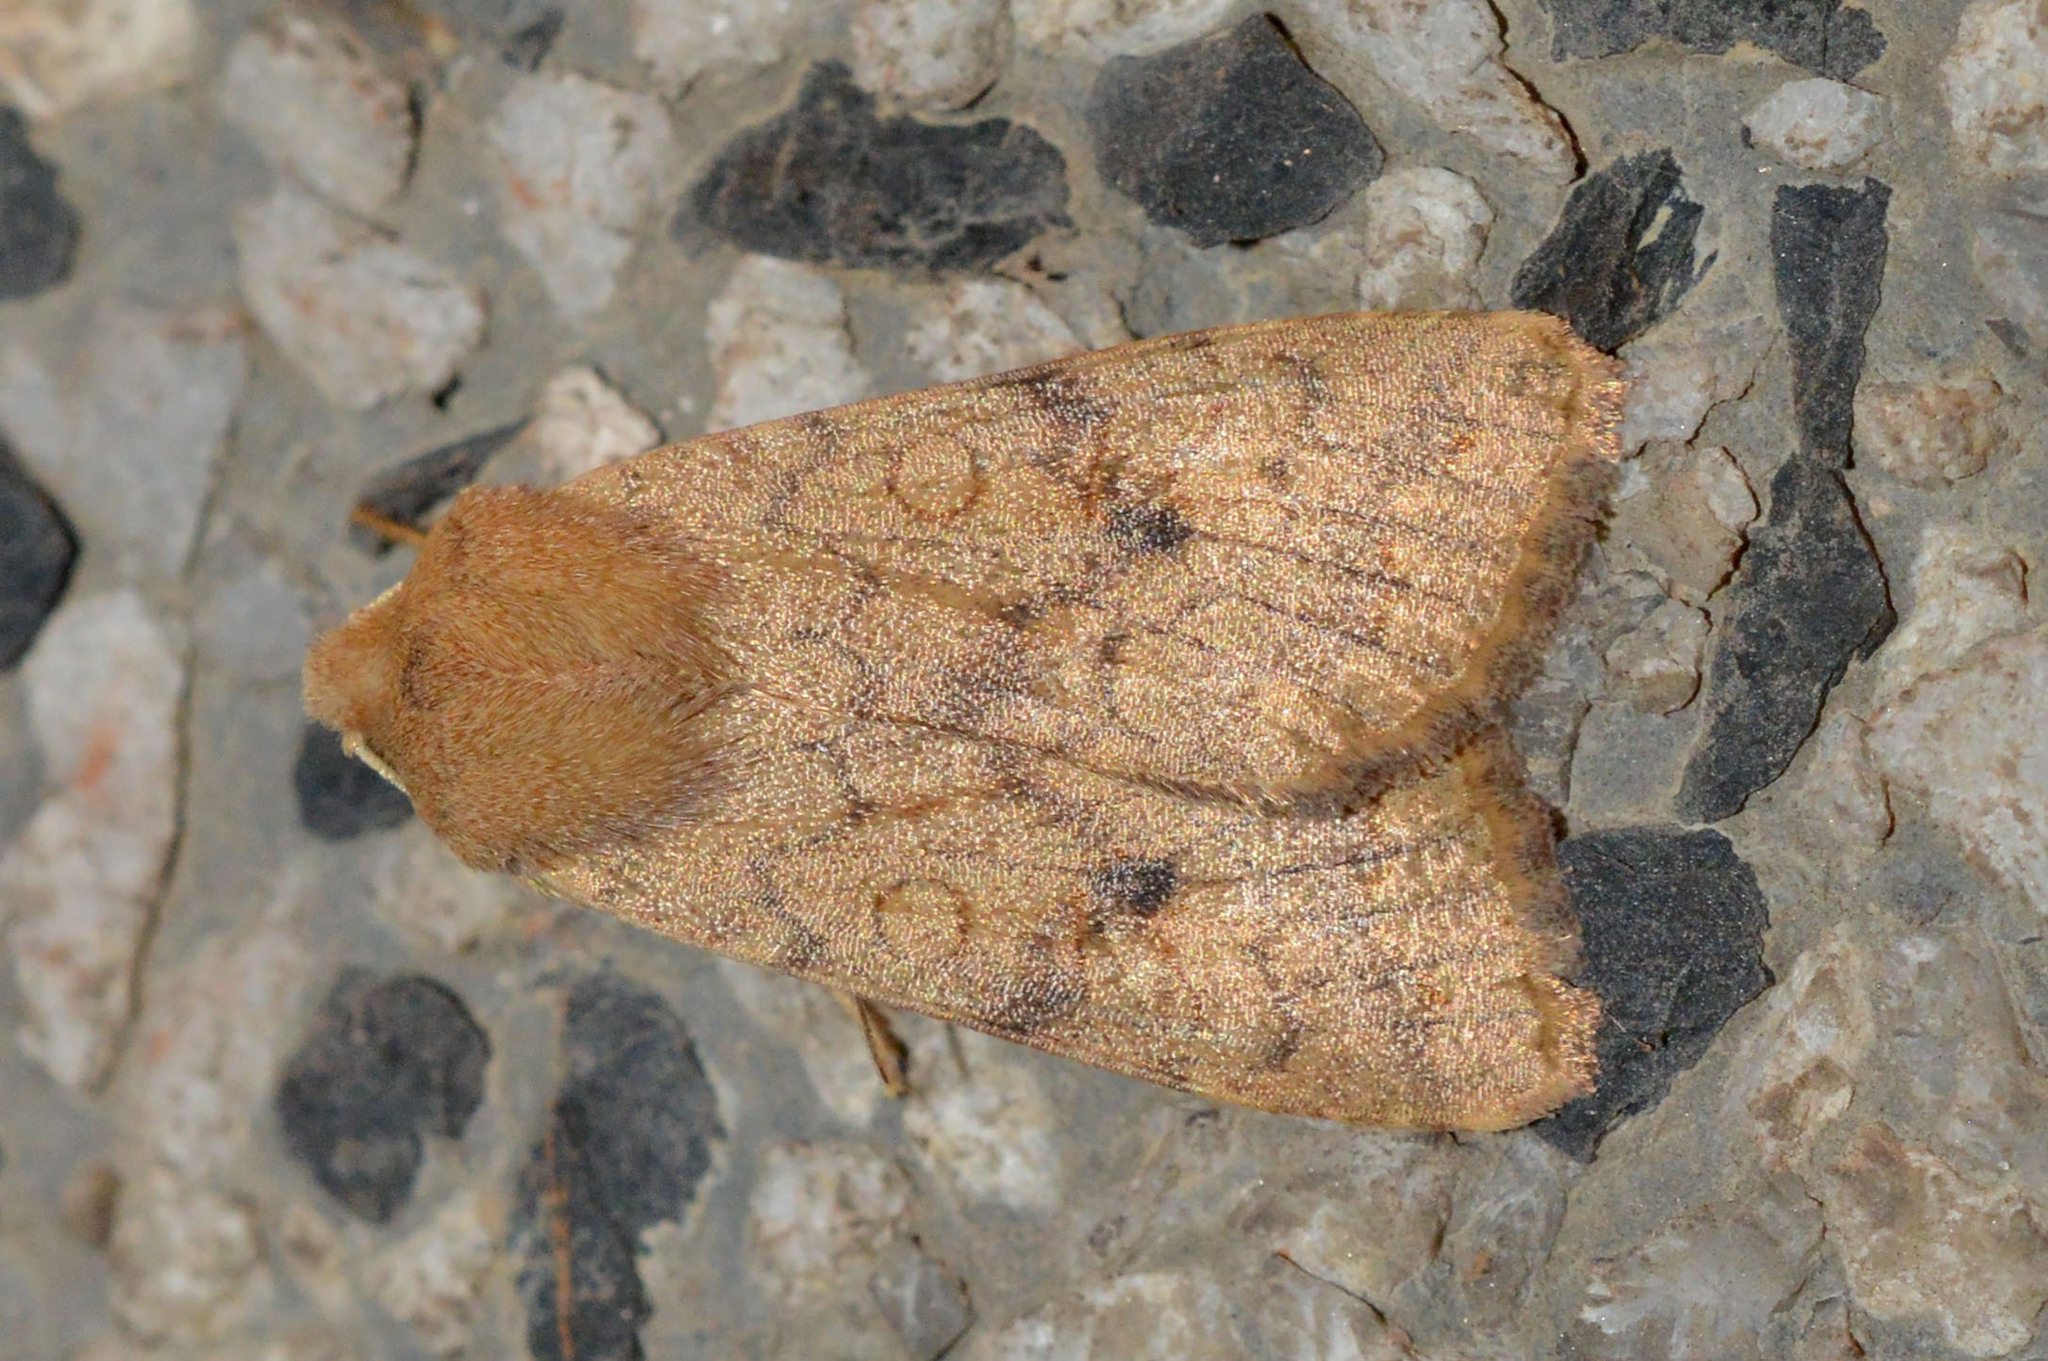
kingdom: Animalia
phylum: Arthropoda
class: Insecta
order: Lepidoptera
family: Noctuidae
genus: Sunira
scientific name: Sunira circellaris
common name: Brick
